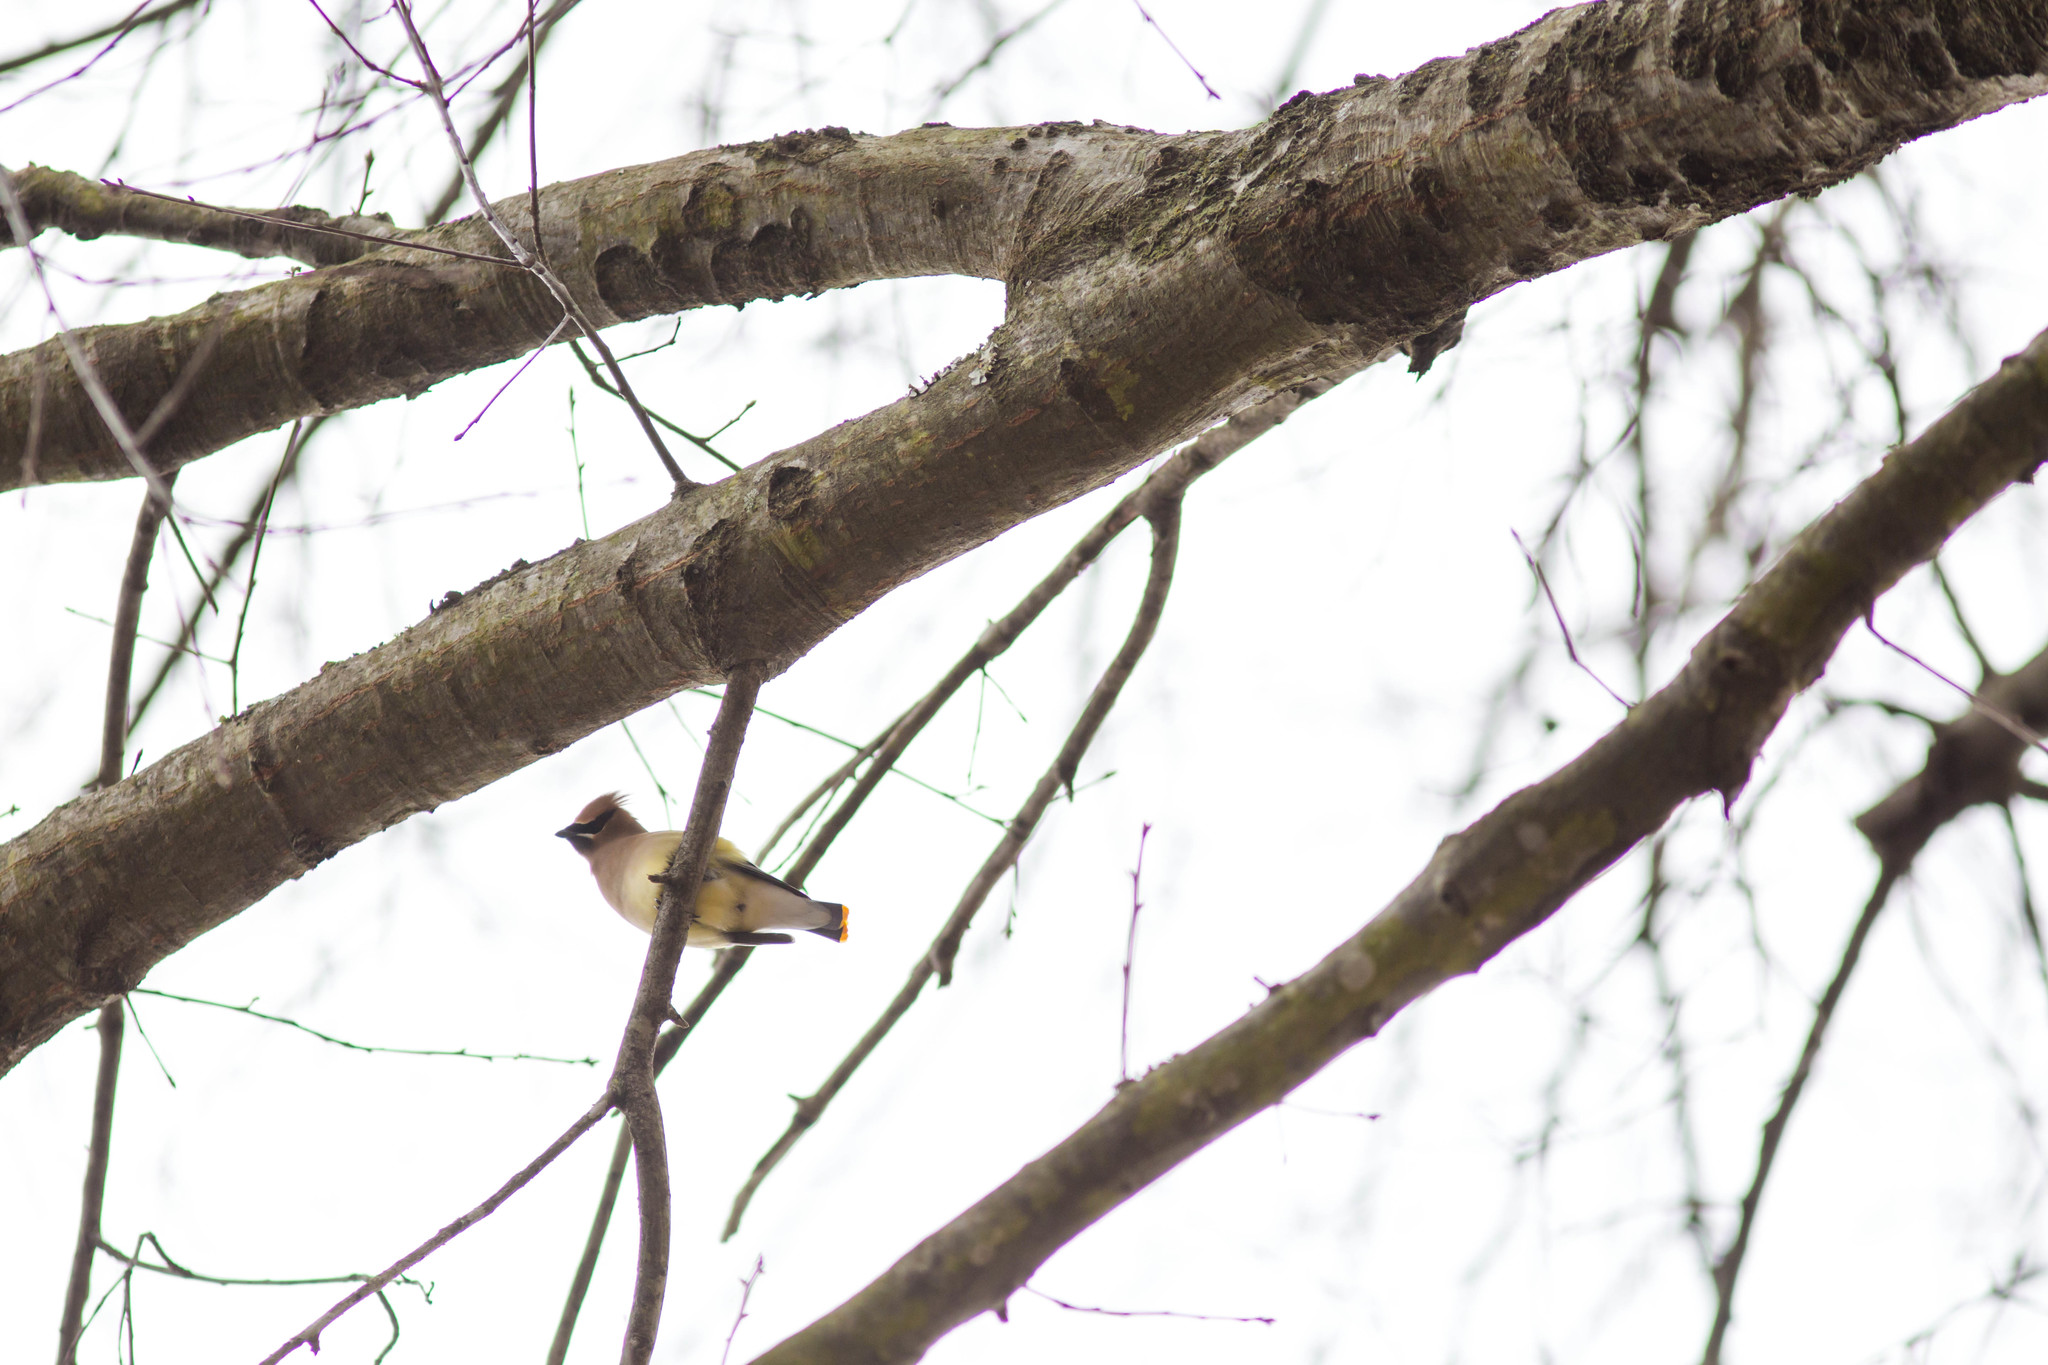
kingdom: Animalia
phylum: Chordata
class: Aves
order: Passeriformes
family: Bombycillidae
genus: Bombycilla
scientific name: Bombycilla cedrorum
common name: Cedar waxwing
